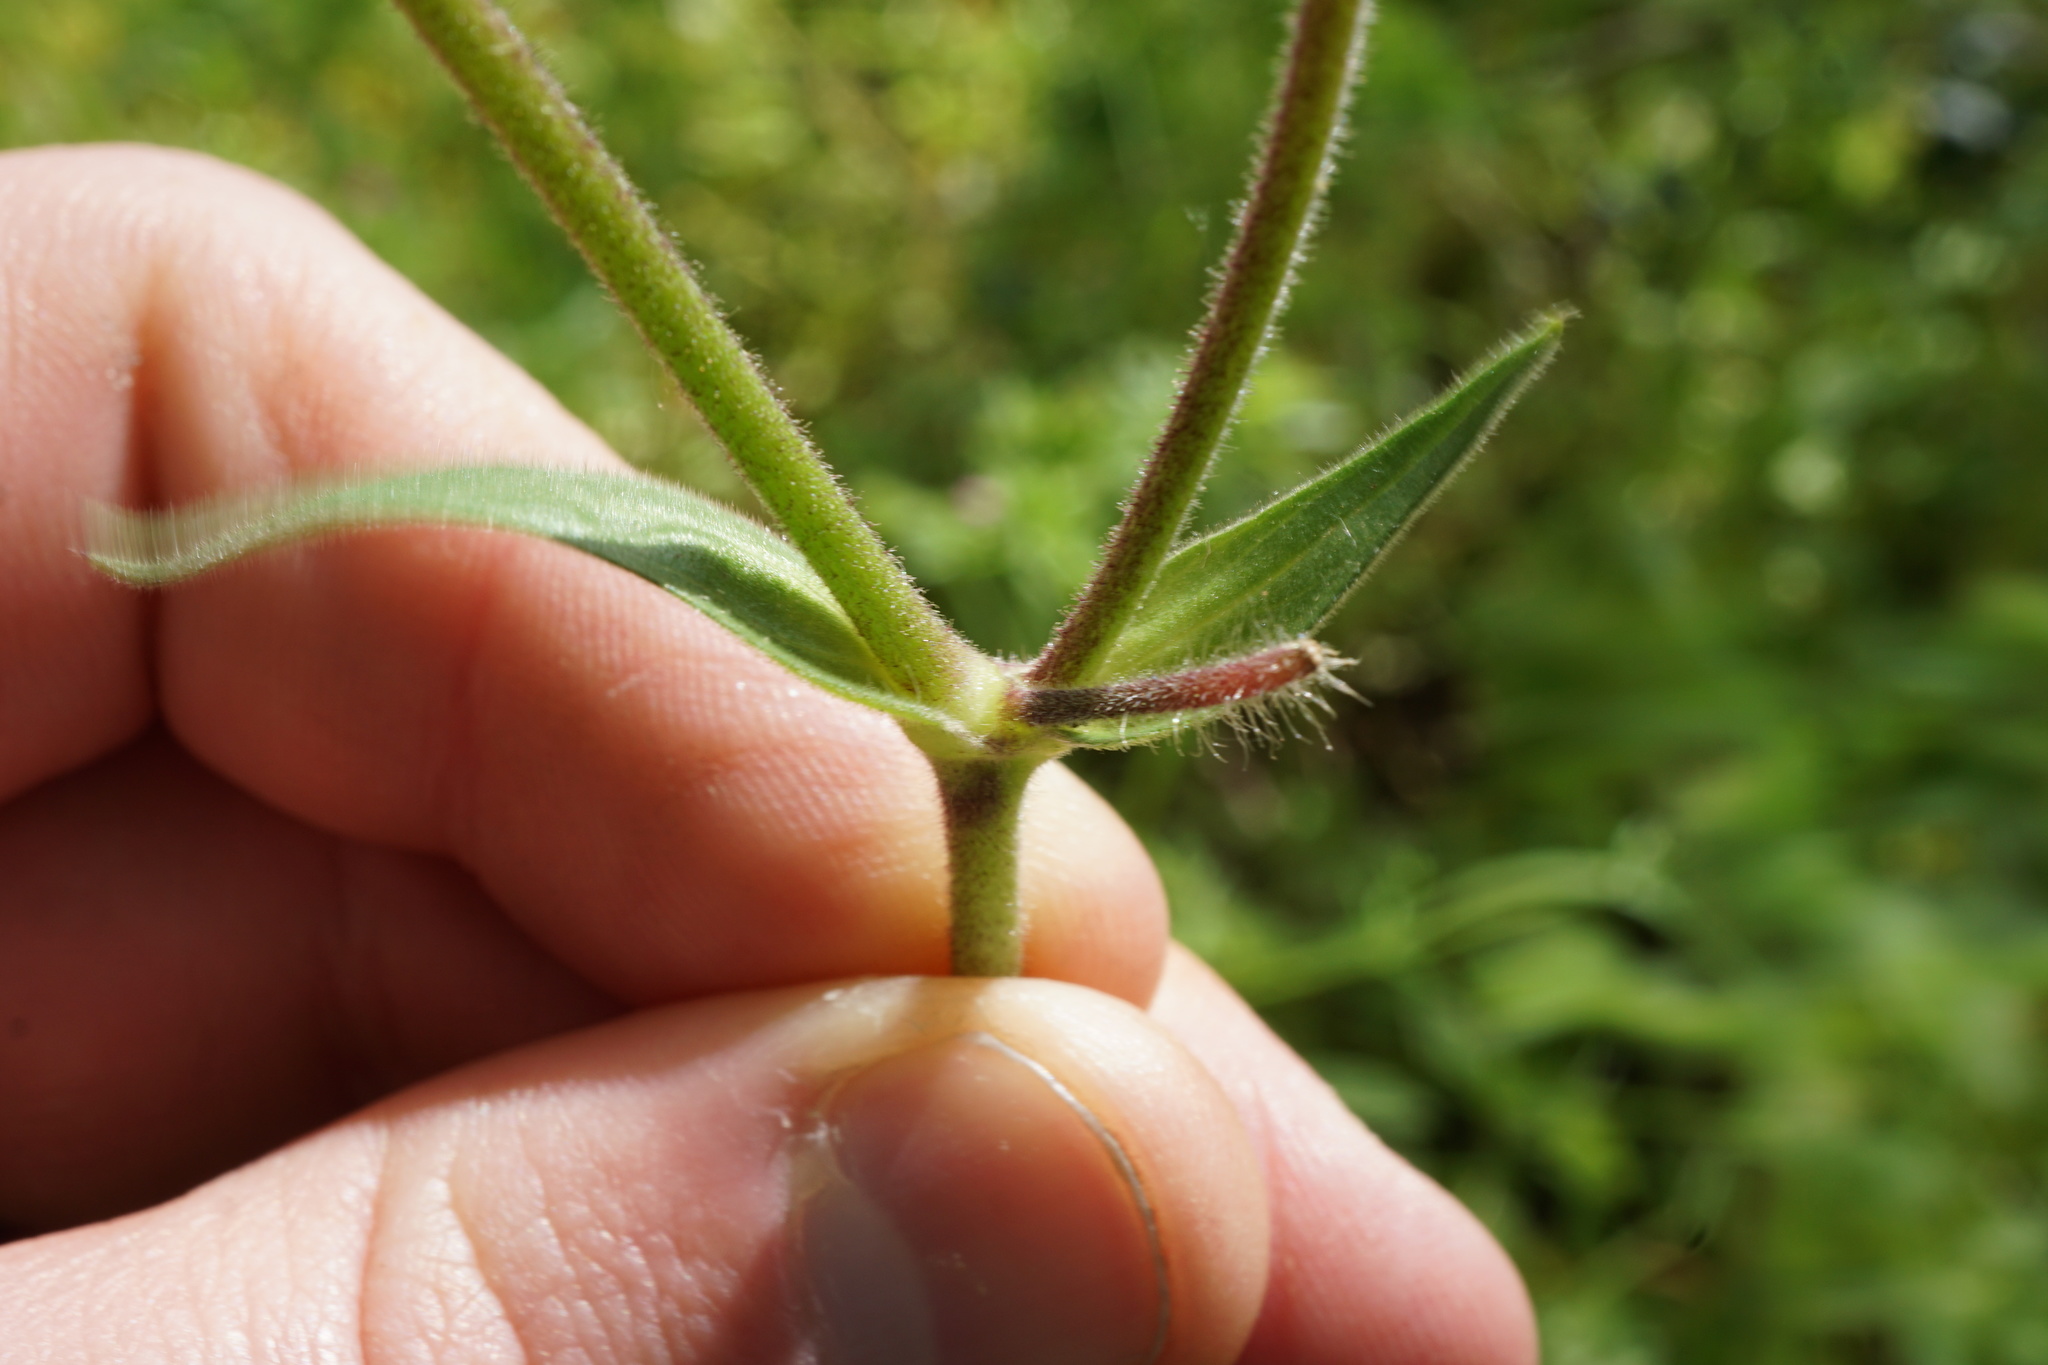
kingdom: Plantae
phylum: Tracheophyta
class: Magnoliopsida
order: Caryophyllales
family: Caryophyllaceae
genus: Silene
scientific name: Silene latifolia
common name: White campion
